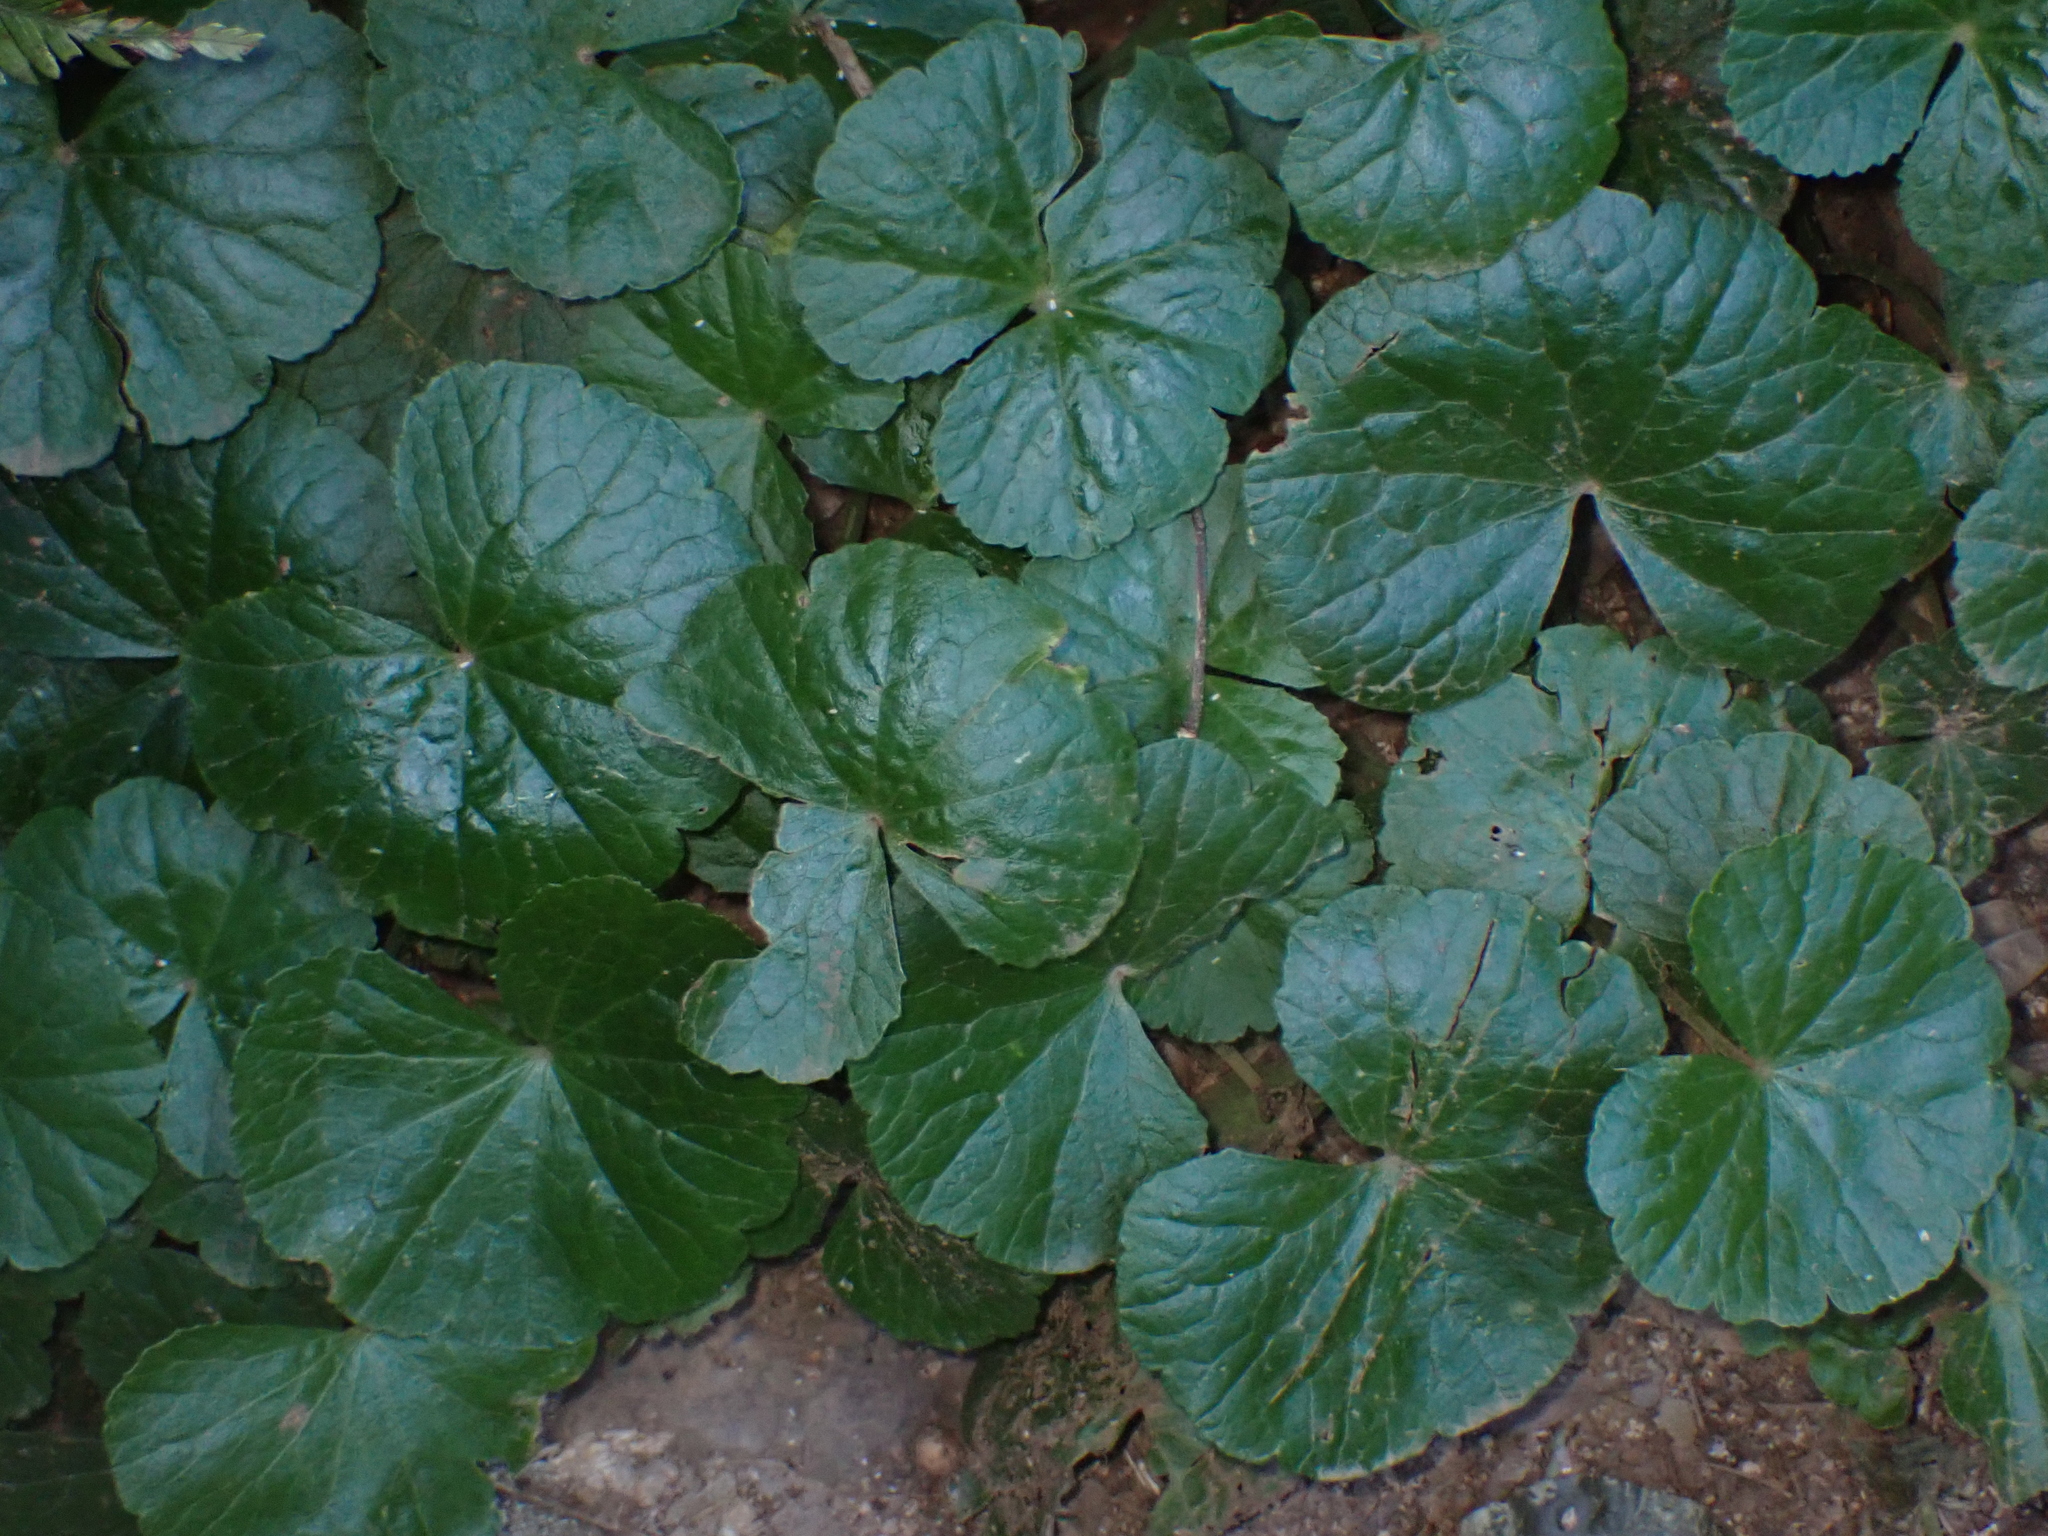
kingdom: Plantae
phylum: Tracheophyta
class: Magnoliopsida
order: Apiales
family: Araliaceae
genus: Hydrocotyle
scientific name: Hydrocotyle pedicellosa
